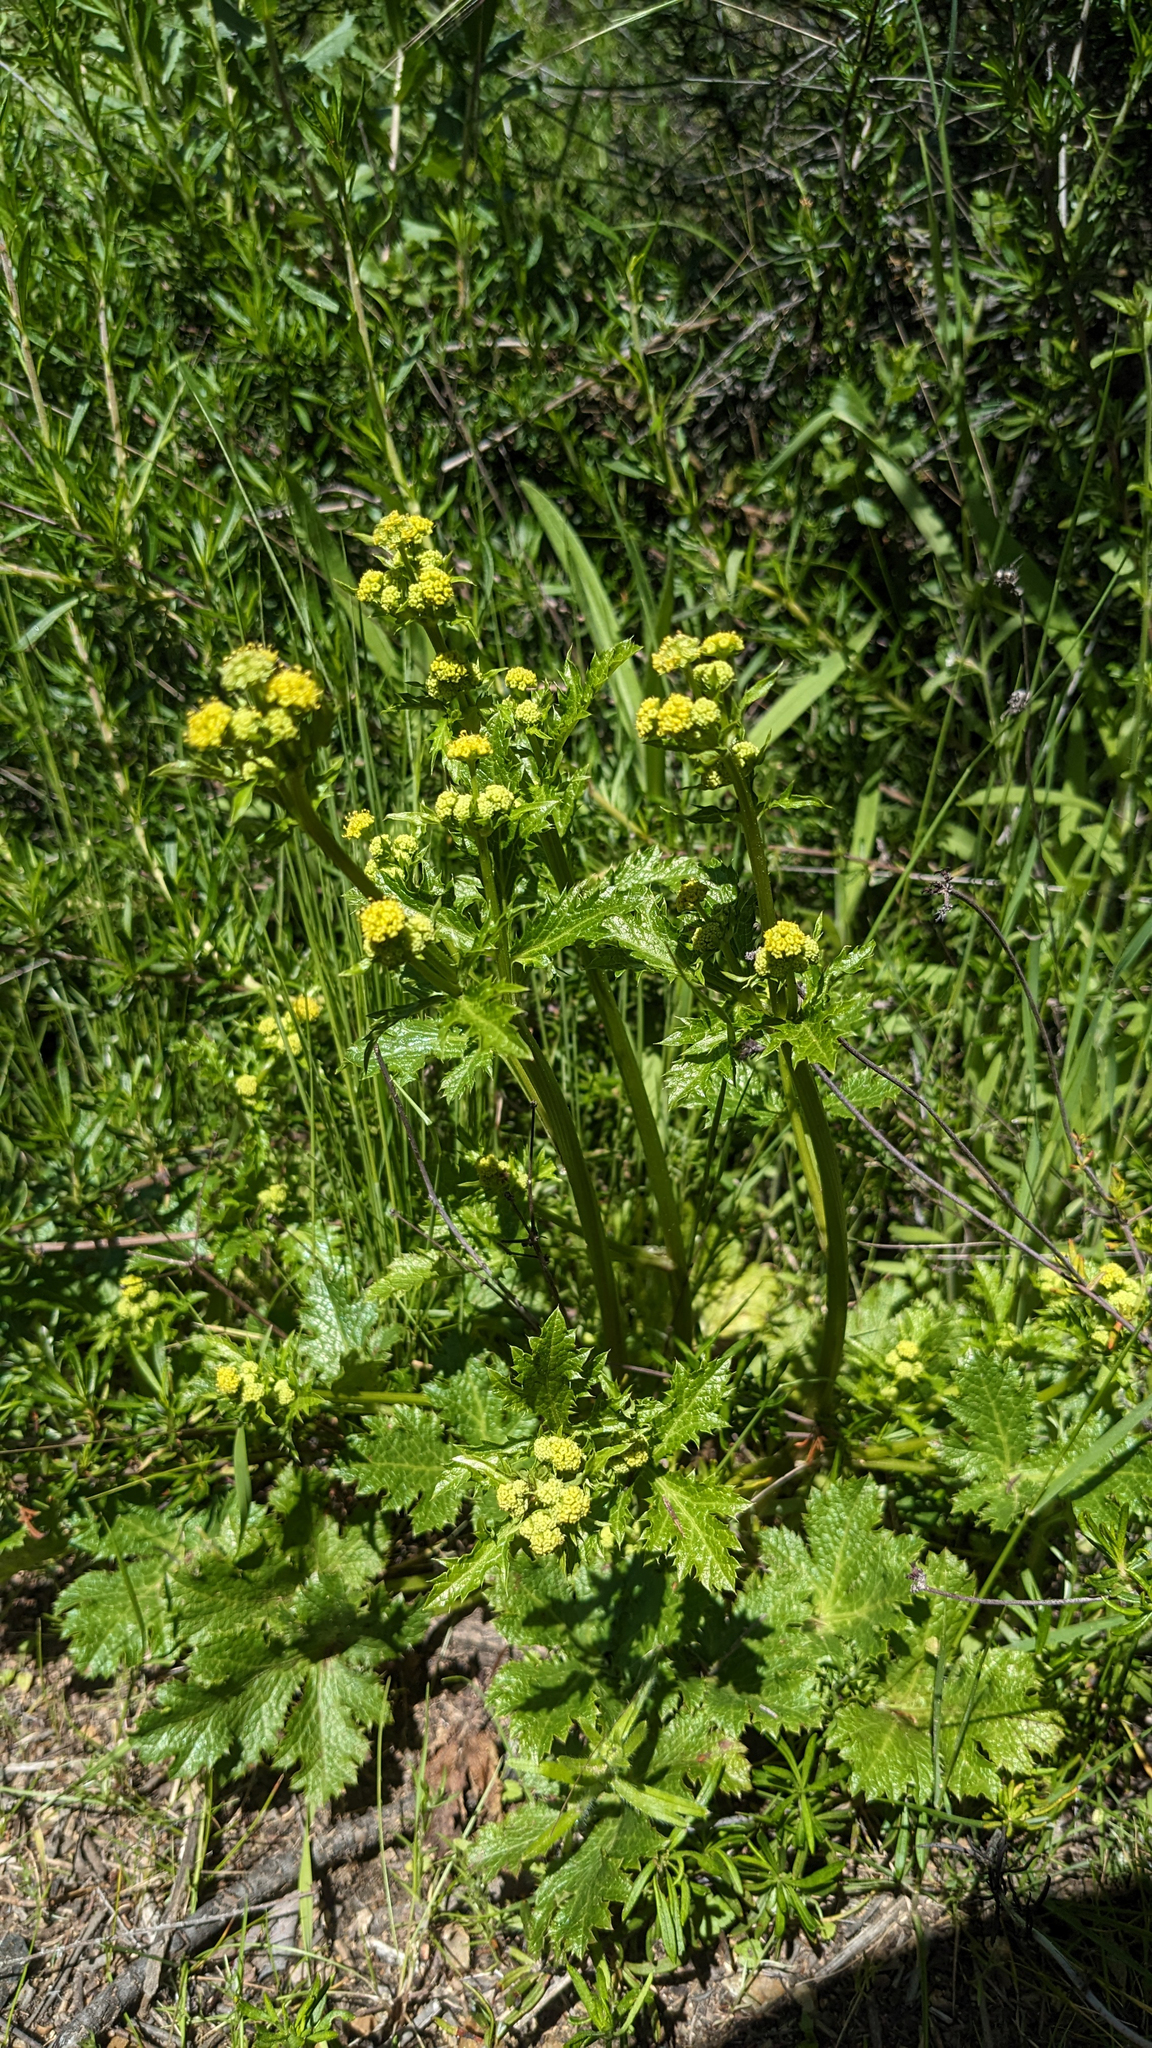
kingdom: Plantae
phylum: Tracheophyta
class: Magnoliopsida
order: Apiales
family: Apiaceae
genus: Sanicula
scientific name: Sanicula crassicaulis
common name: Western snakeroot
